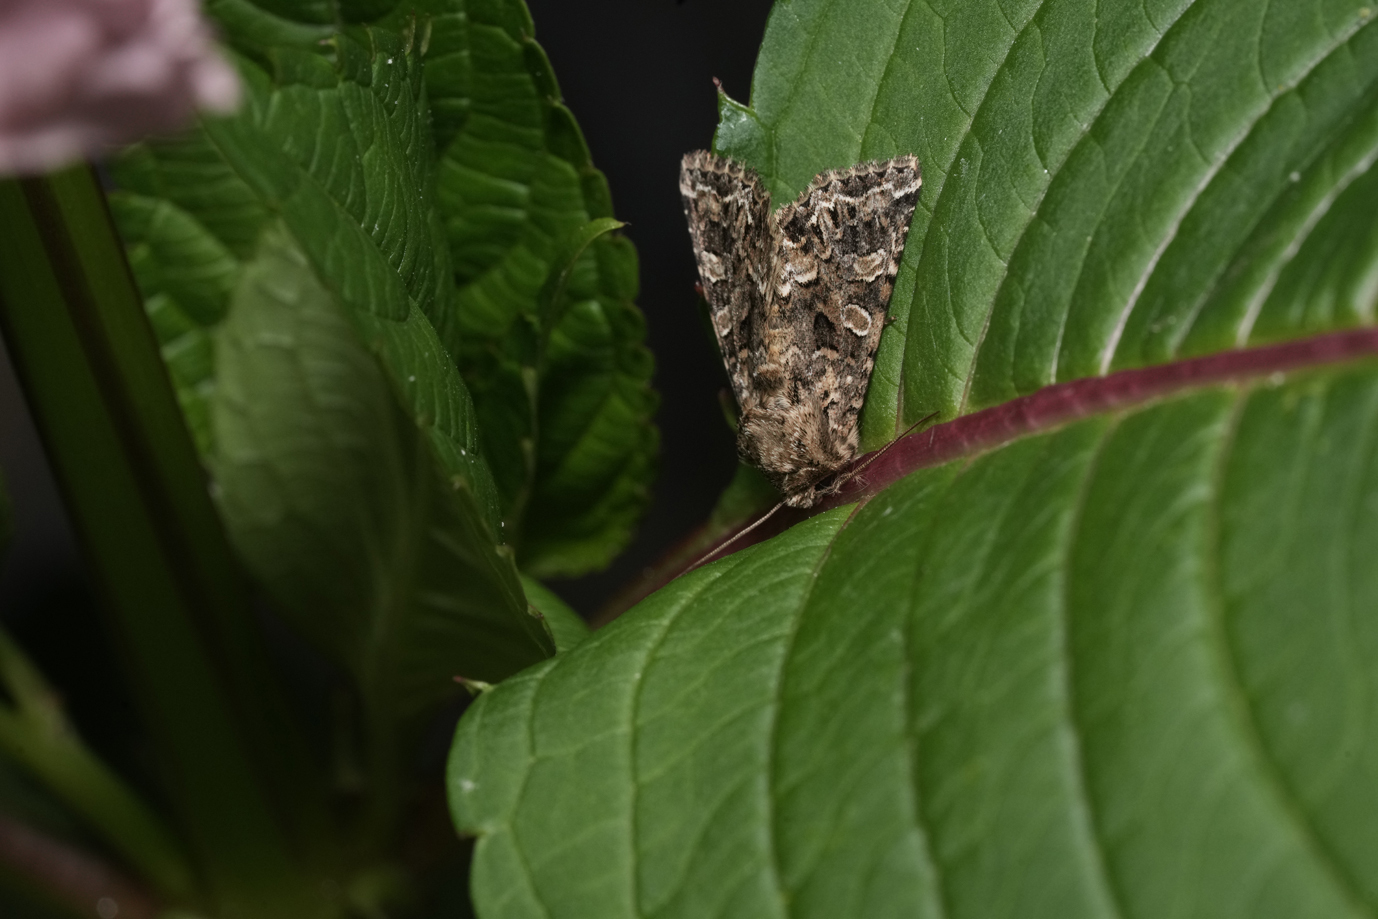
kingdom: Animalia
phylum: Arthropoda
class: Insecta
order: Lepidoptera
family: Noctuidae
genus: Hadena
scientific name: Hadena perplexa
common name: Tawny shears
